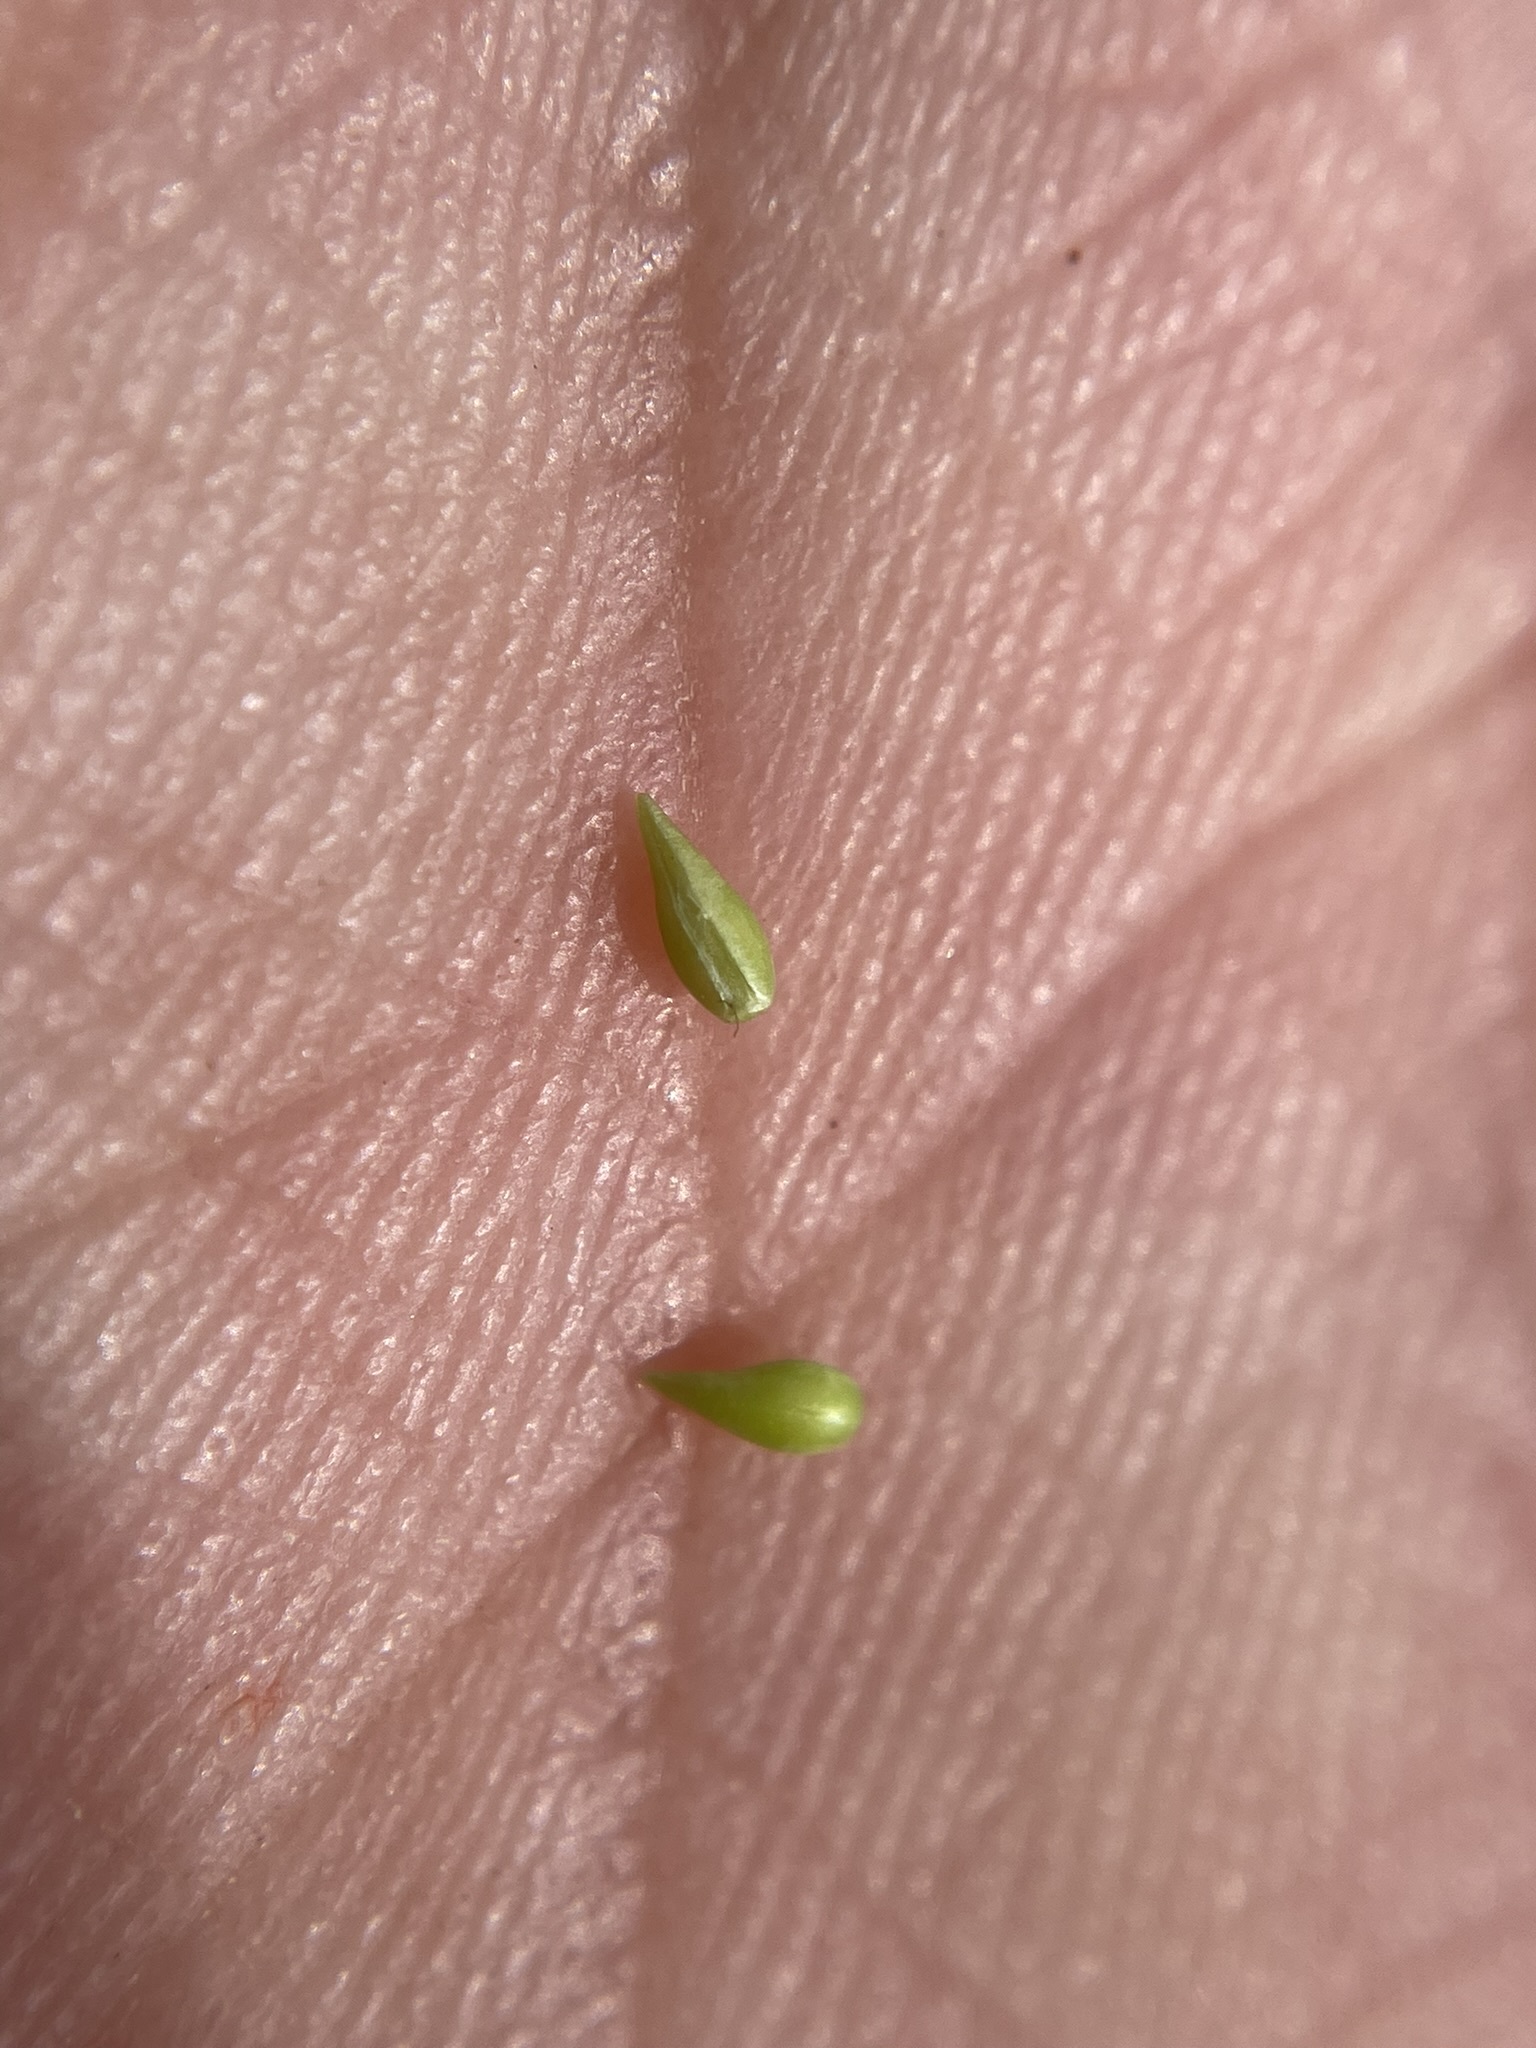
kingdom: Plantae
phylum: Tracheophyta
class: Magnoliopsida
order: Boraginales
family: Boraginaceae
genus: Cryptantha
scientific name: Cryptantha ganderi
